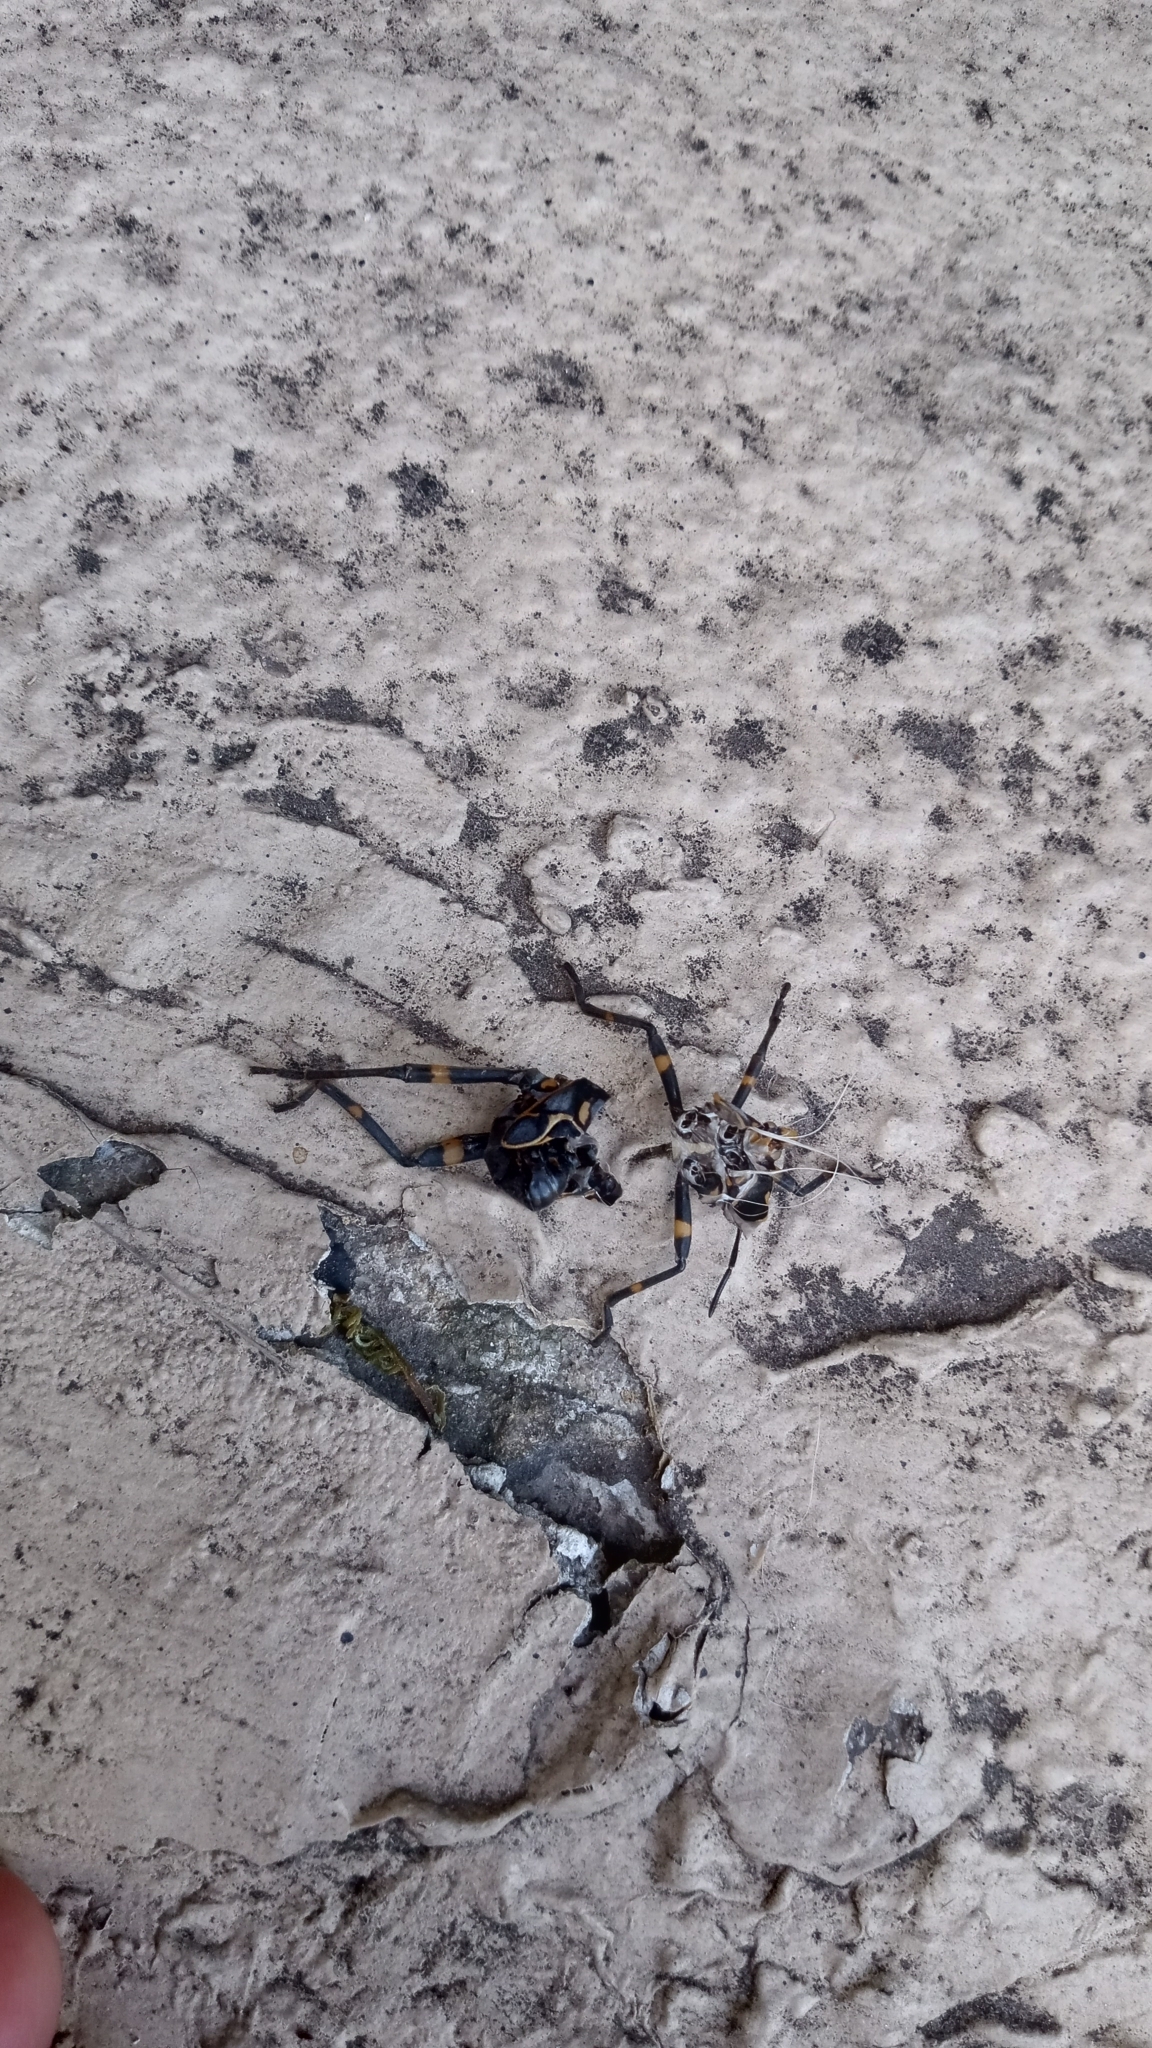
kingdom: Animalia
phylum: Arthropoda
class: Insecta
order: Hemiptera
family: Coreidae
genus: Pachylis
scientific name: Pachylis argentinus
